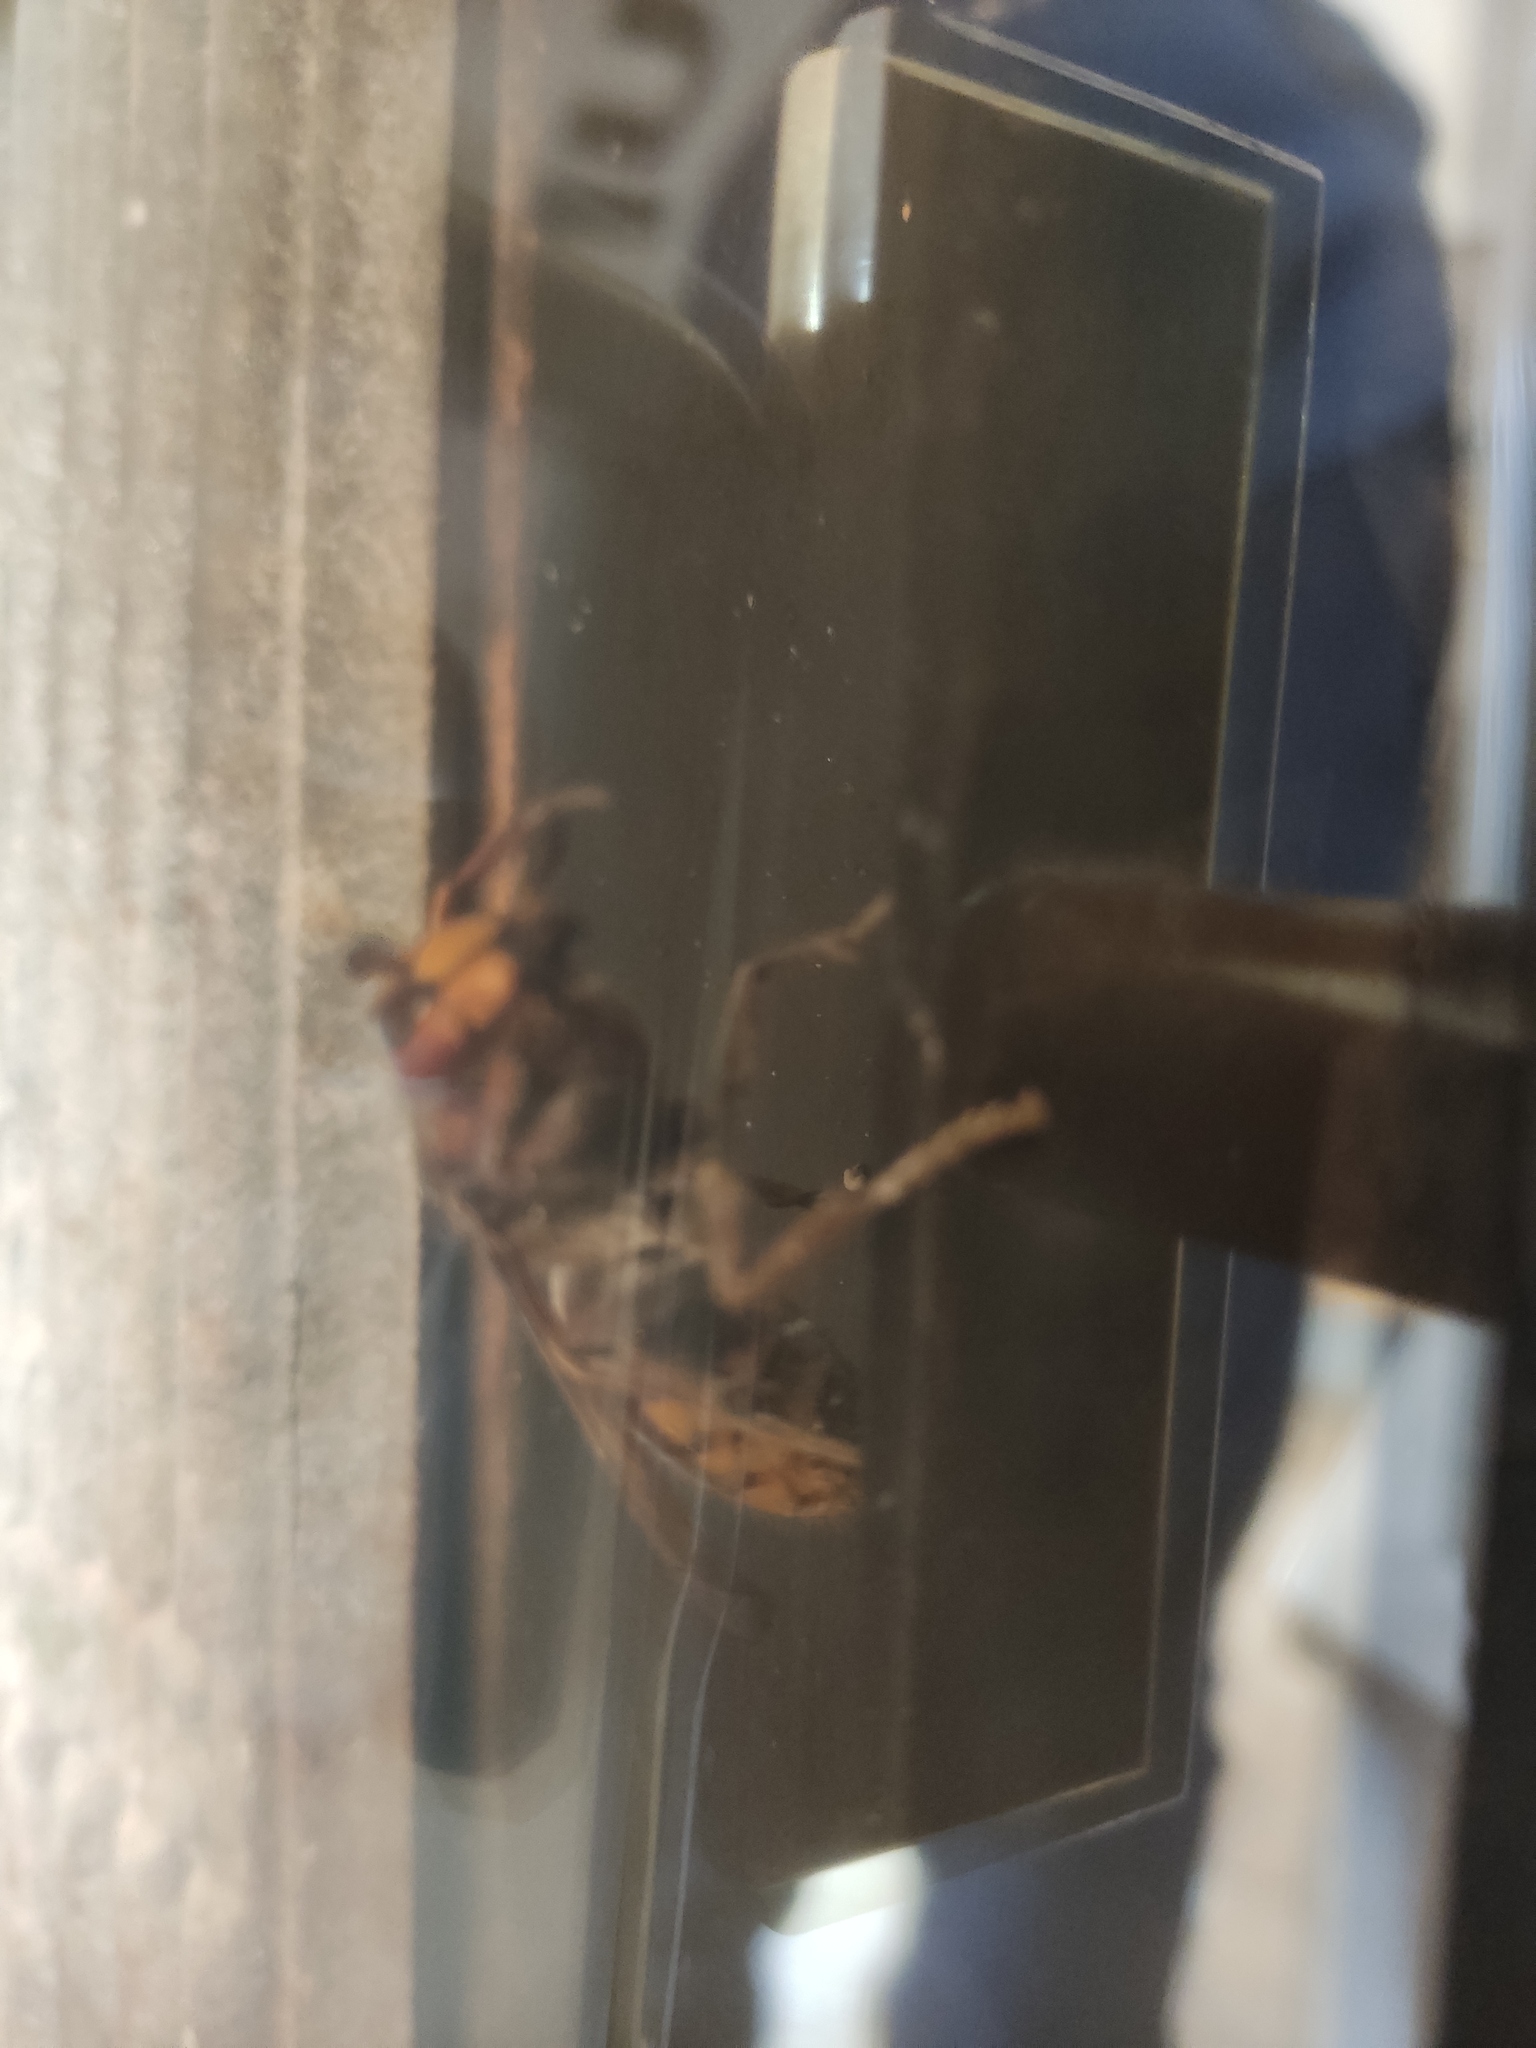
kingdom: Animalia
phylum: Arthropoda
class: Insecta
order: Hymenoptera
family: Vespidae
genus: Vespa
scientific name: Vespa crabro
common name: Hornet
